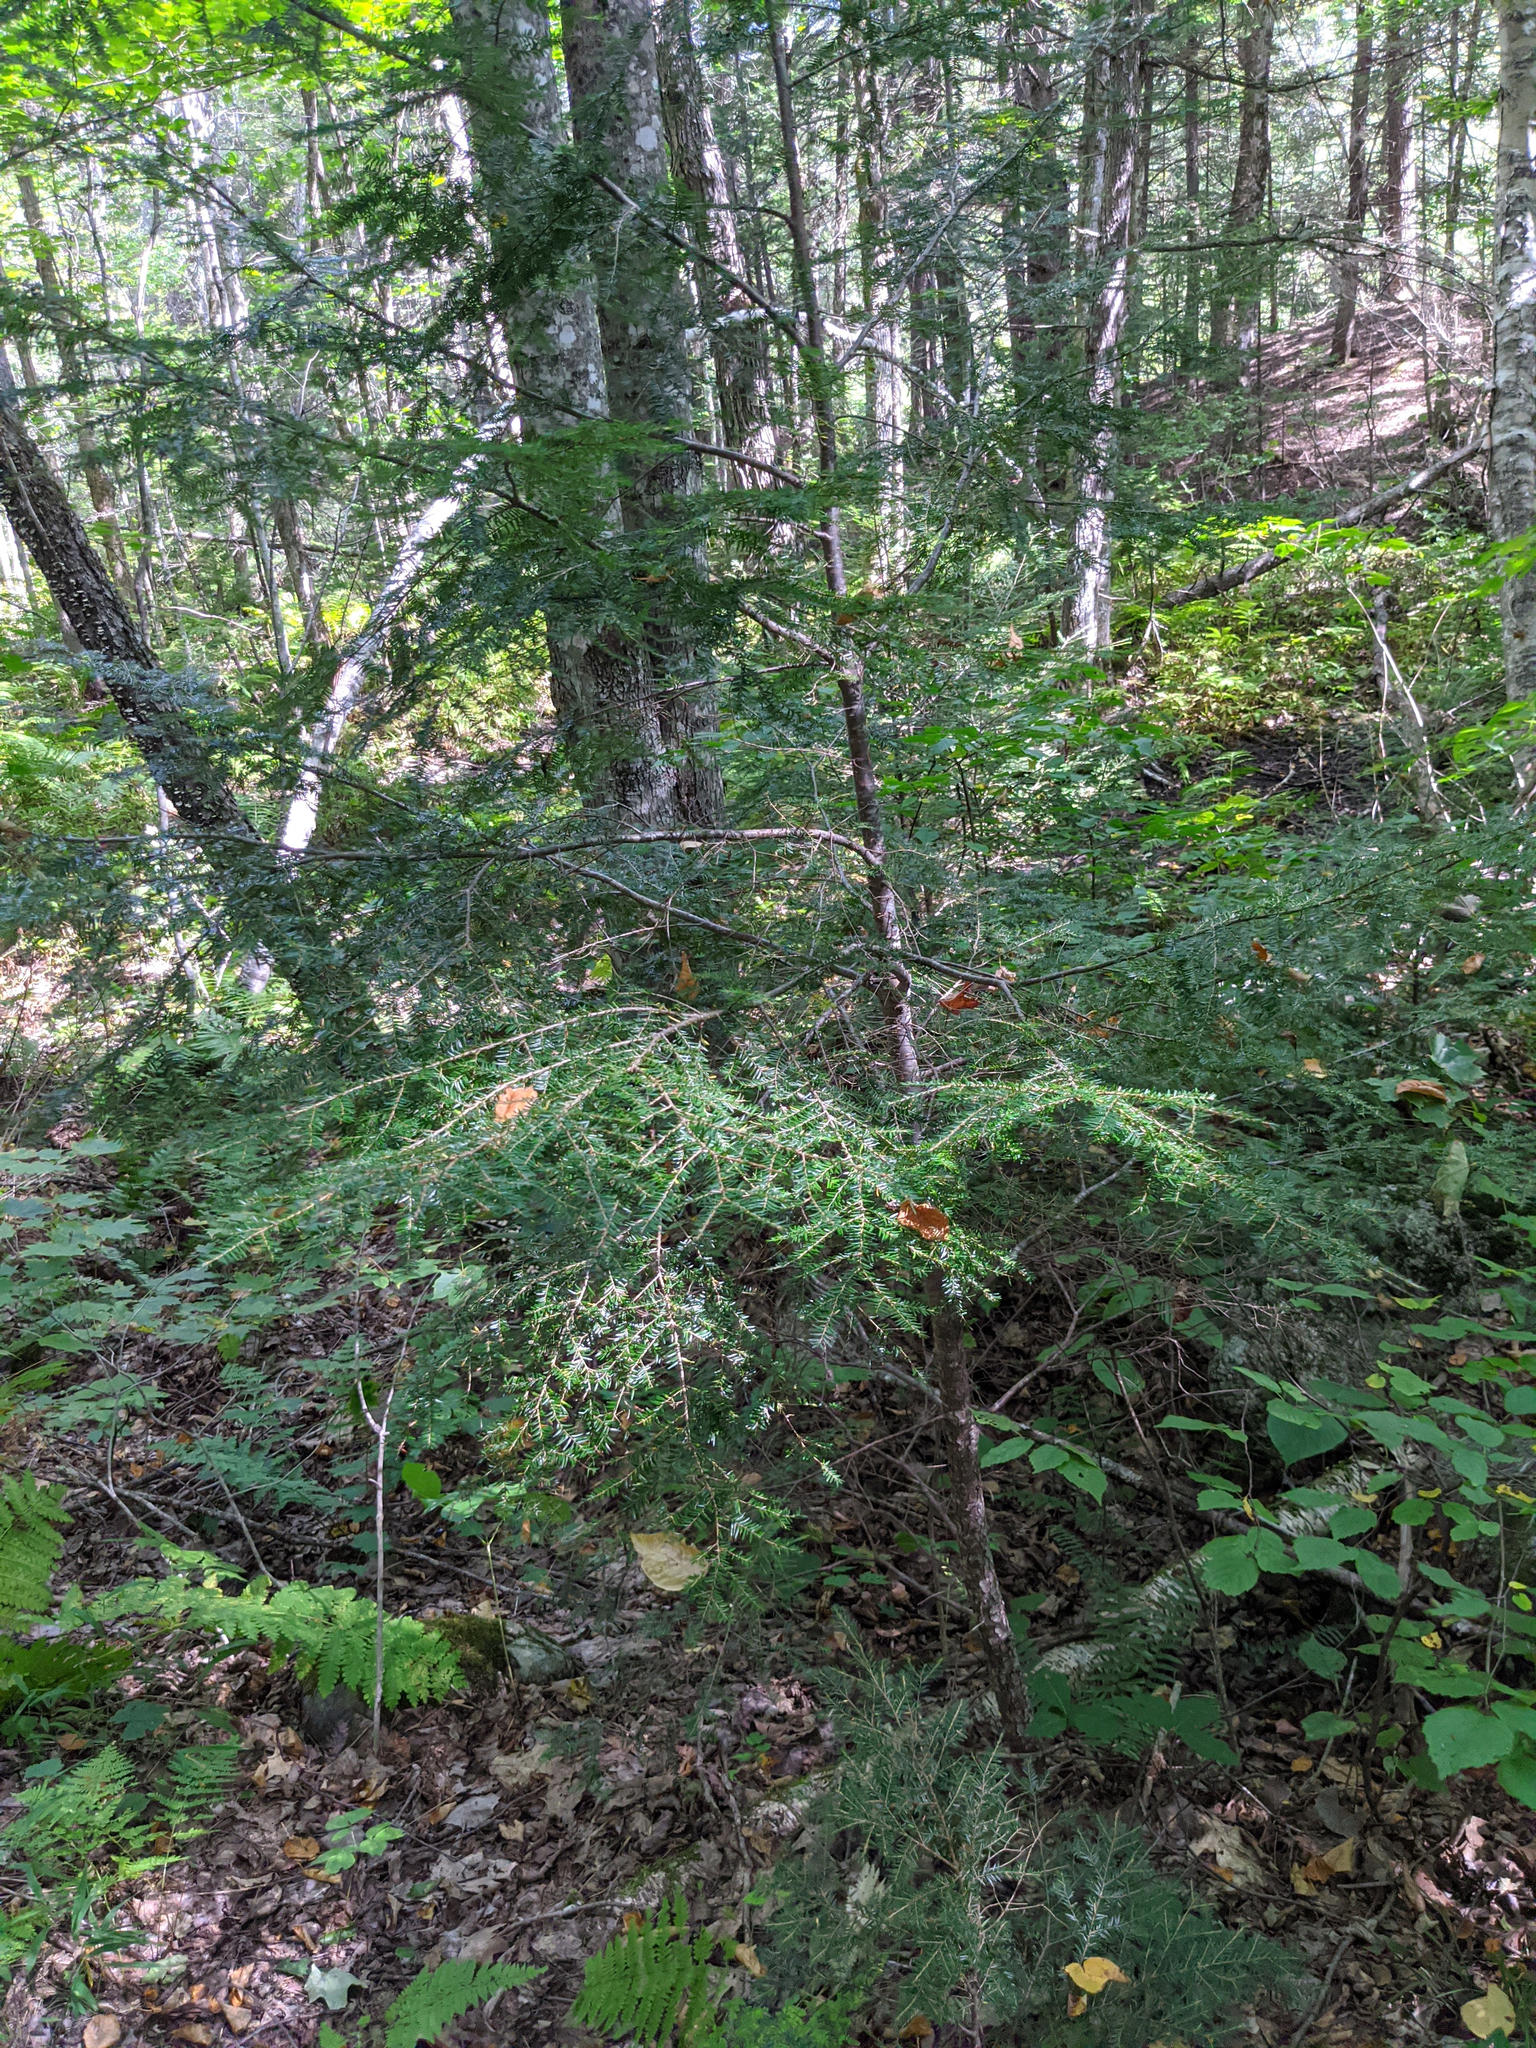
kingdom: Plantae
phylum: Tracheophyta
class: Pinopsida
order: Pinales
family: Pinaceae
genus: Tsuga
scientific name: Tsuga canadensis
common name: Eastern hemlock
